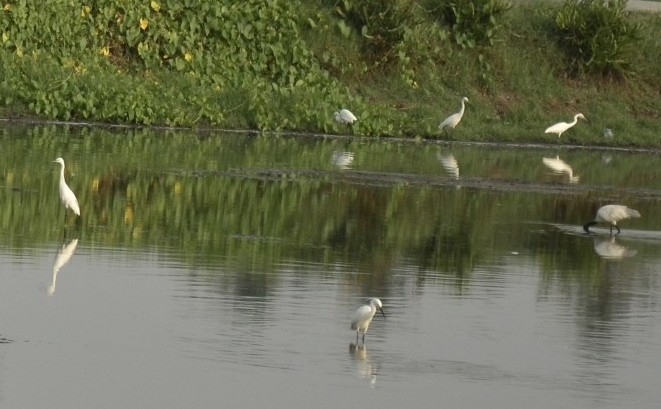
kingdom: Animalia
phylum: Chordata
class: Aves
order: Pelecaniformes
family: Ardeidae
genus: Egretta
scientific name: Egretta garzetta
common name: Little egret
